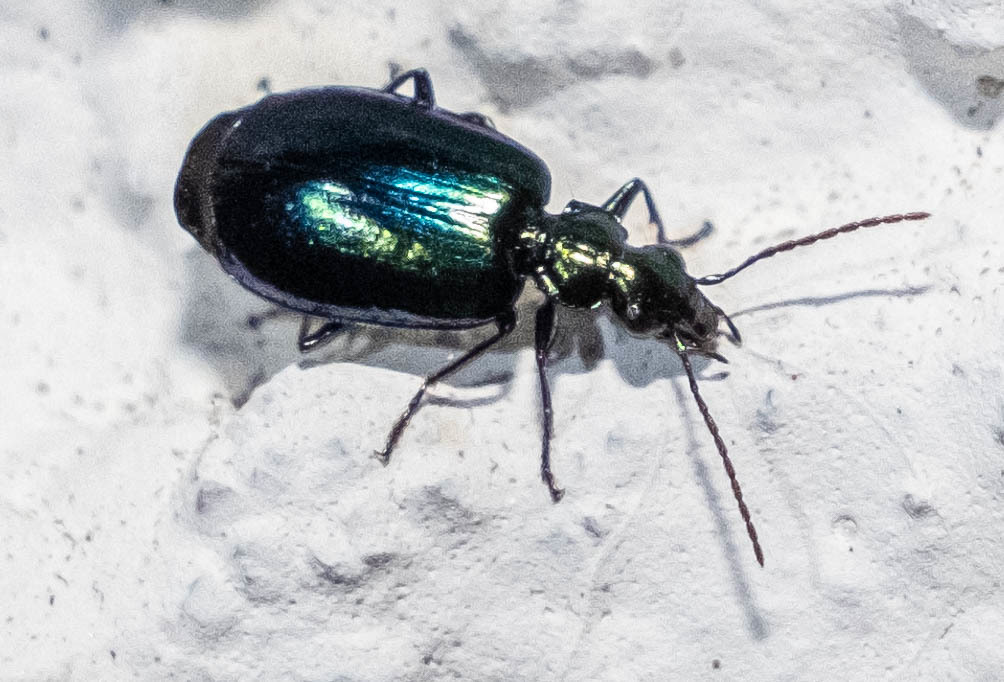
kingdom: Animalia
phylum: Arthropoda
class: Insecta
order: Coleoptera
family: Carabidae
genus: Lebia
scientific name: Lebia viridis
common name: Flower lebia beetle
